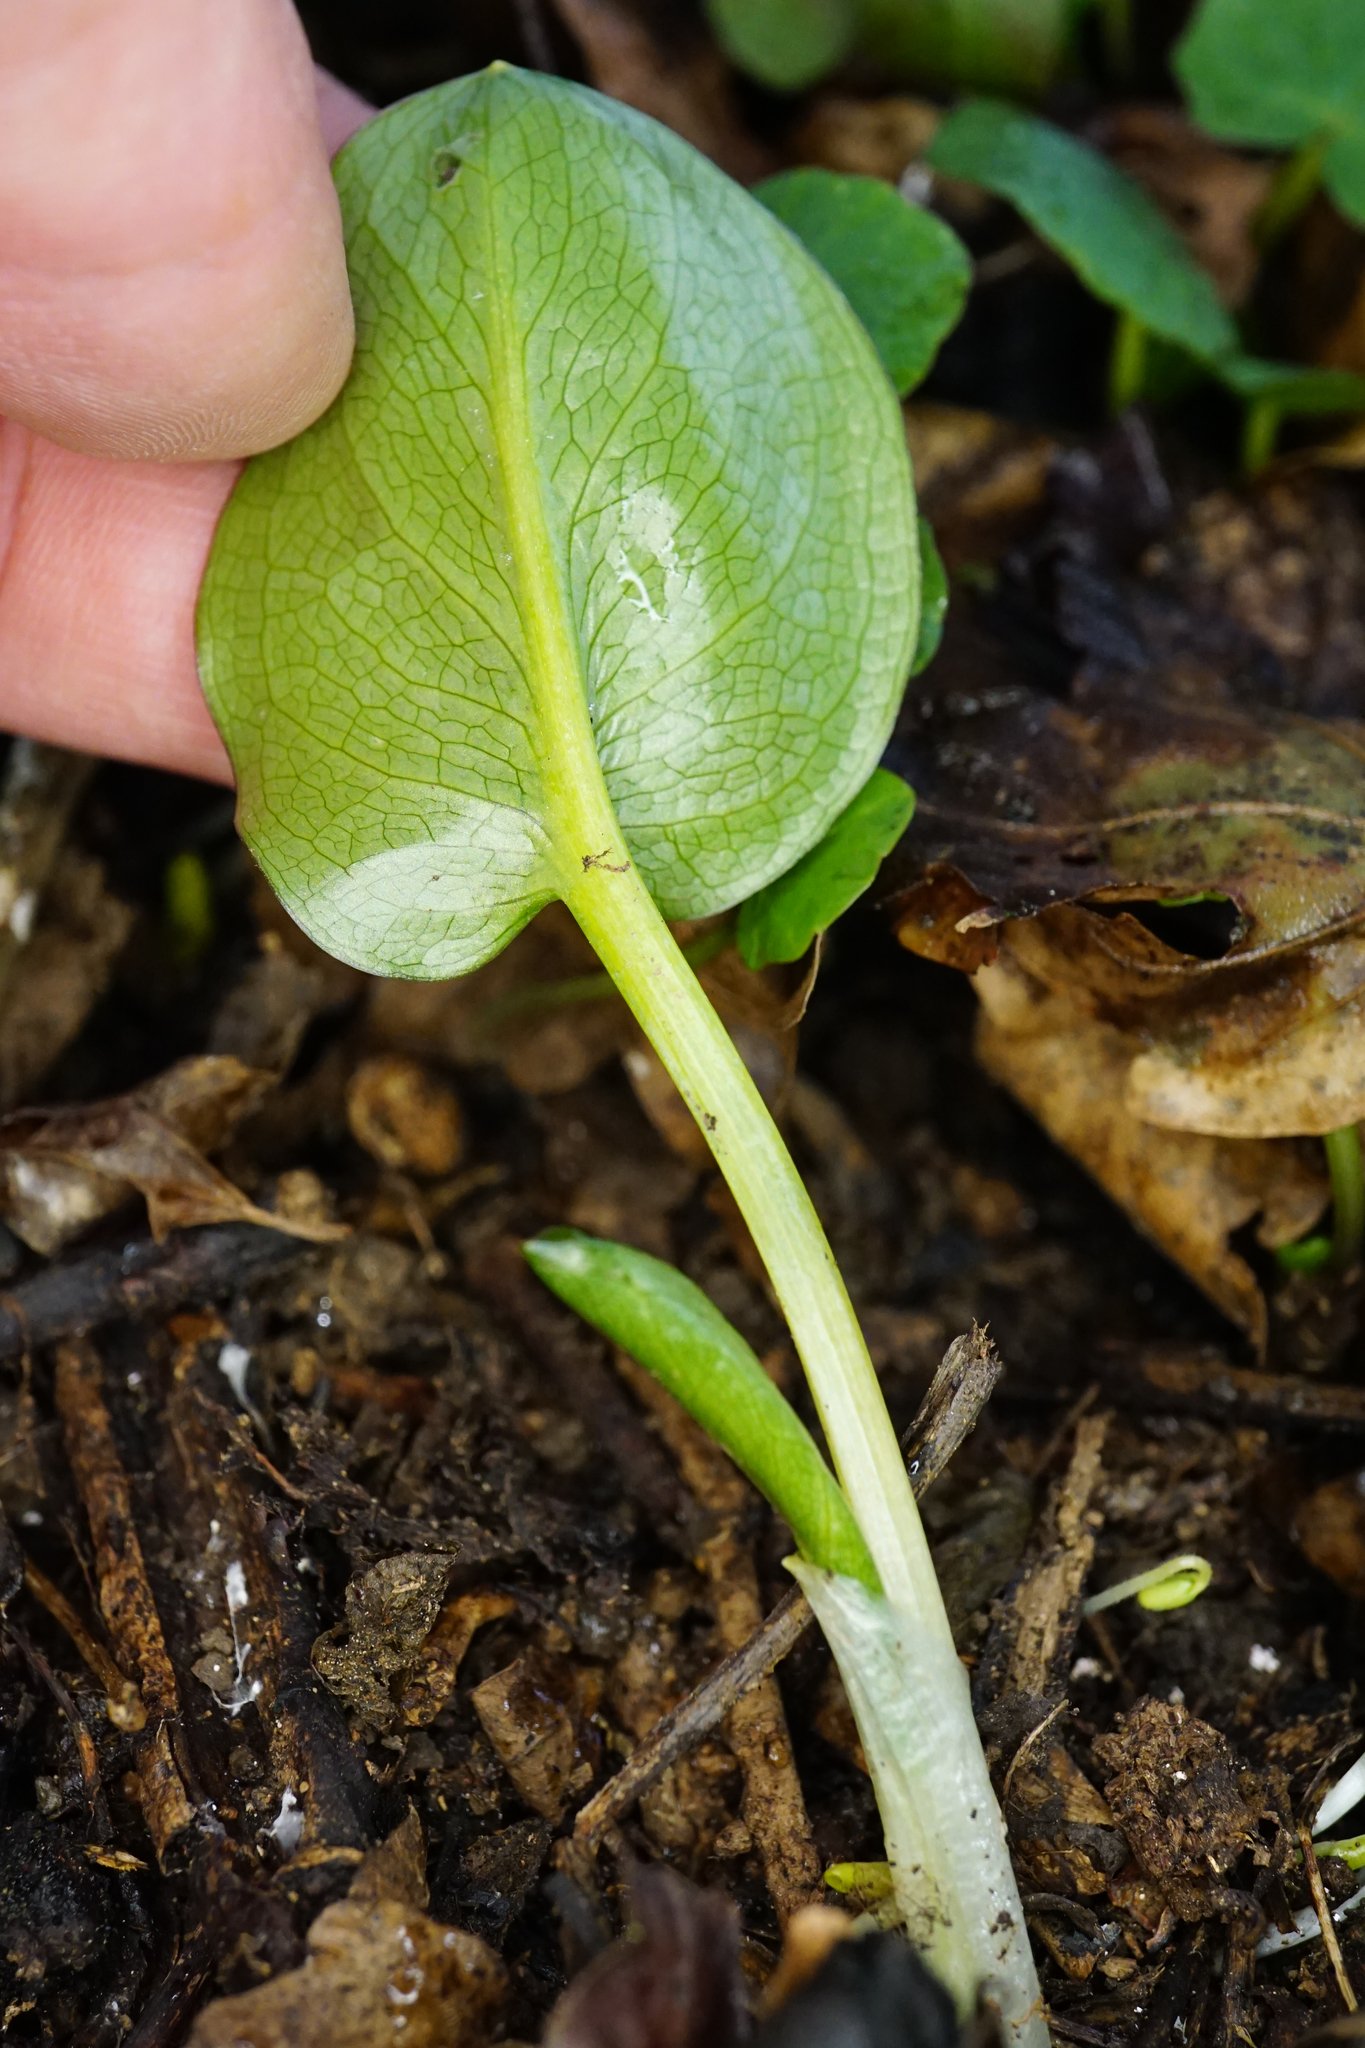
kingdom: Plantae
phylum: Tracheophyta
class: Liliopsida
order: Alismatales
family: Araceae
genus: Arum
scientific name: Arum cylindraceum
